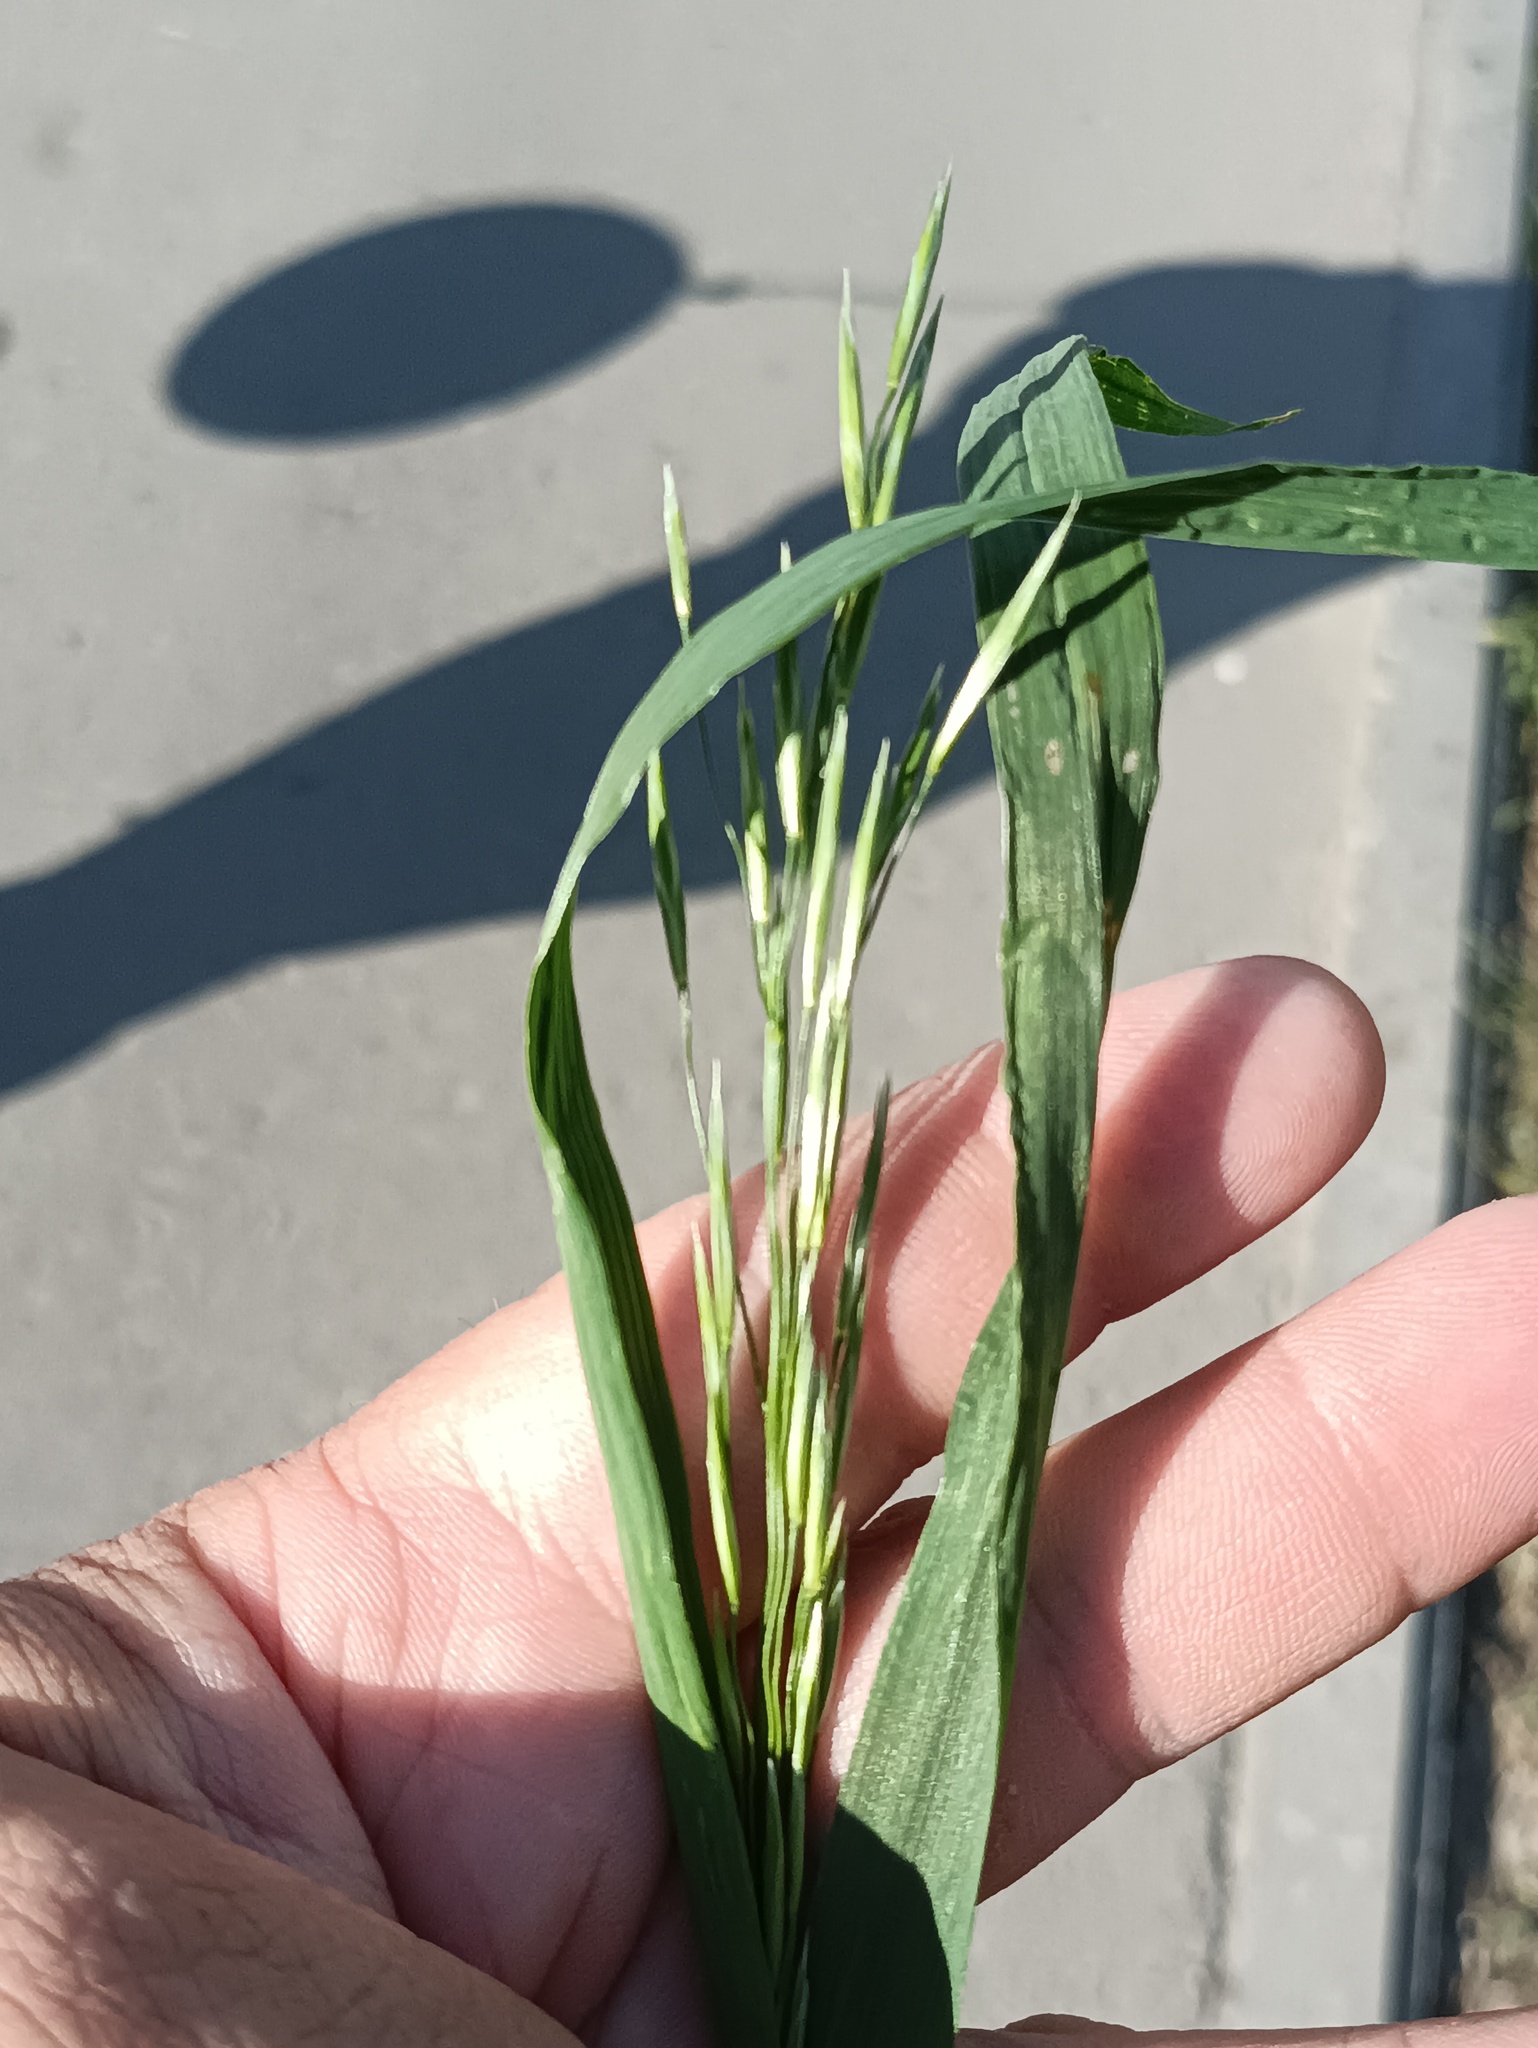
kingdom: Plantae
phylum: Tracheophyta
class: Liliopsida
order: Poales
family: Poaceae
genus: Bromus
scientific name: Bromus inermis
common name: Smooth brome
